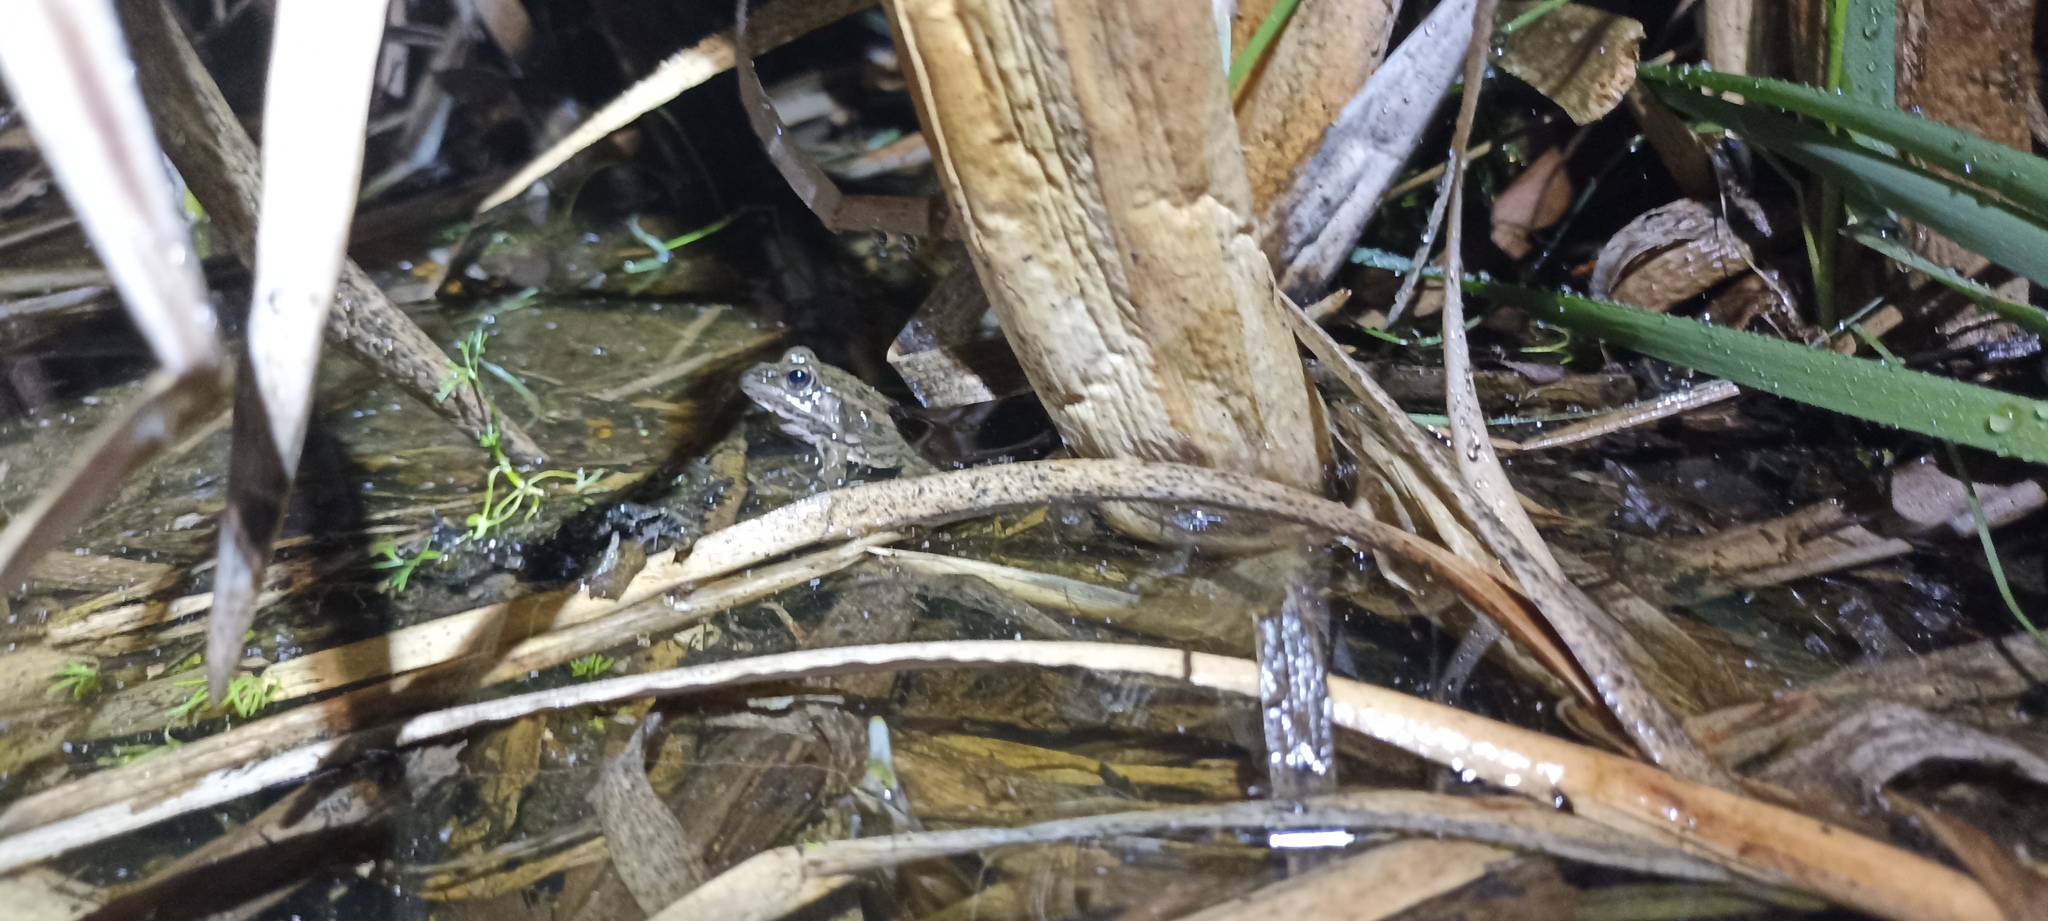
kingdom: Animalia
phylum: Chordata
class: Amphibia
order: Anura
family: Ranidae
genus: Pelophylax
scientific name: Pelophylax
